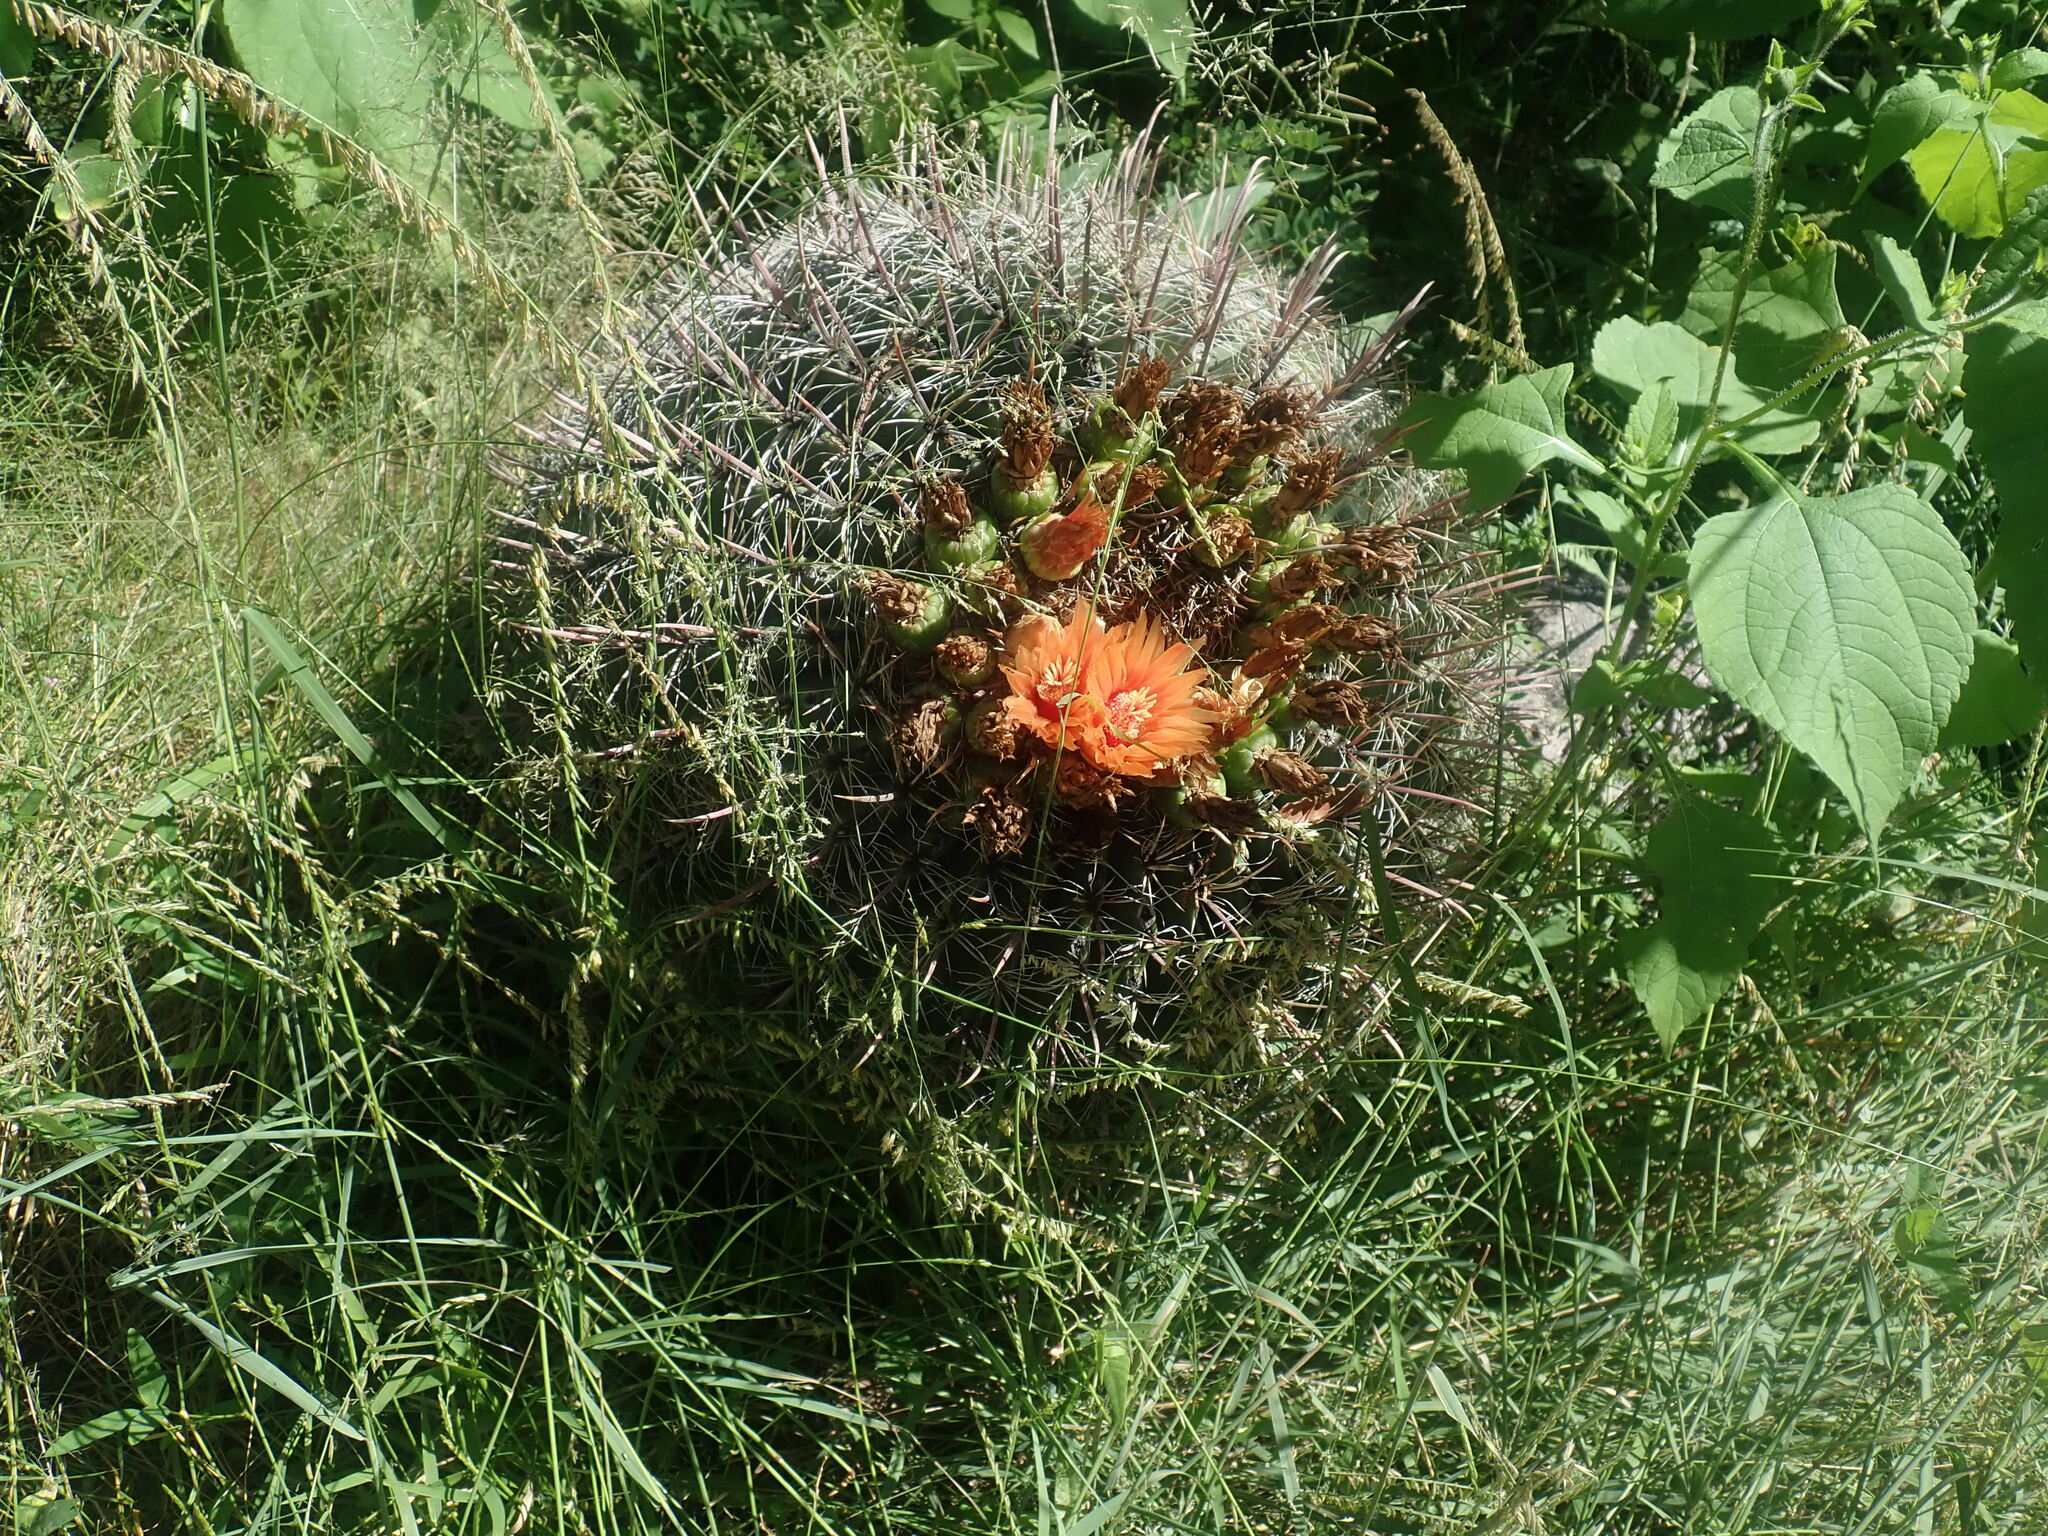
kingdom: Plantae
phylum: Tracheophyta
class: Magnoliopsida
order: Caryophyllales
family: Cactaceae
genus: Ferocactus
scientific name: Ferocactus wislizeni
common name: Candy barrel cactus
